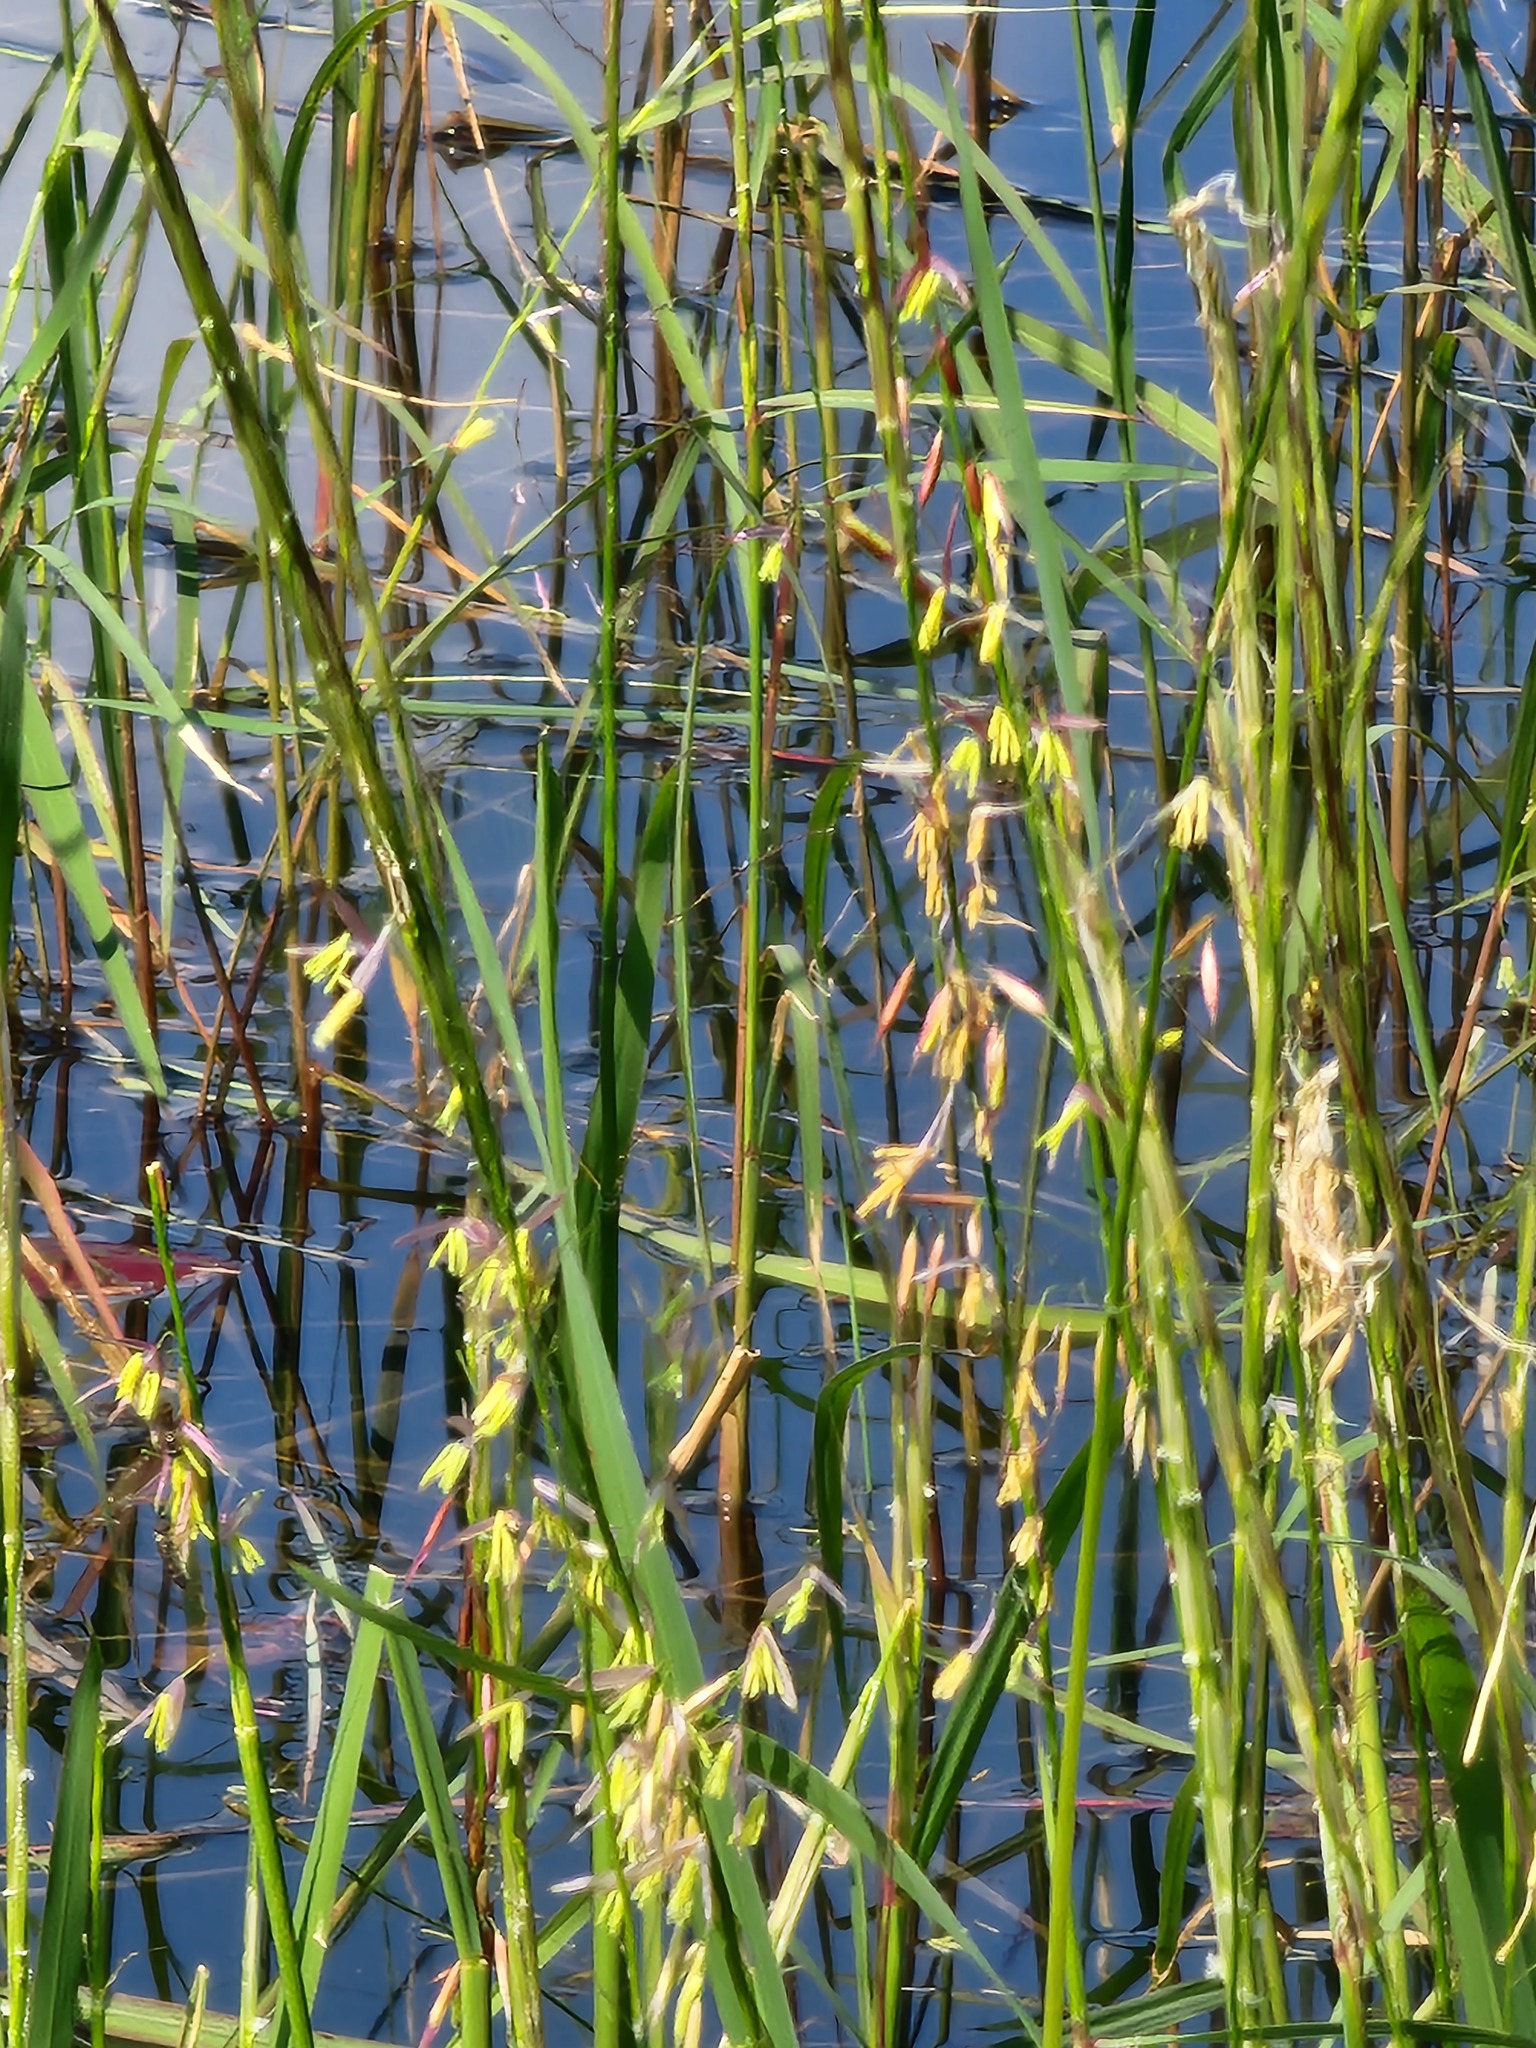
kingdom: Plantae
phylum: Tracheophyta
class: Liliopsida
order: Poales
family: Poaceae
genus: Zizania
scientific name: Zizania palustris
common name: Northern wild rice
